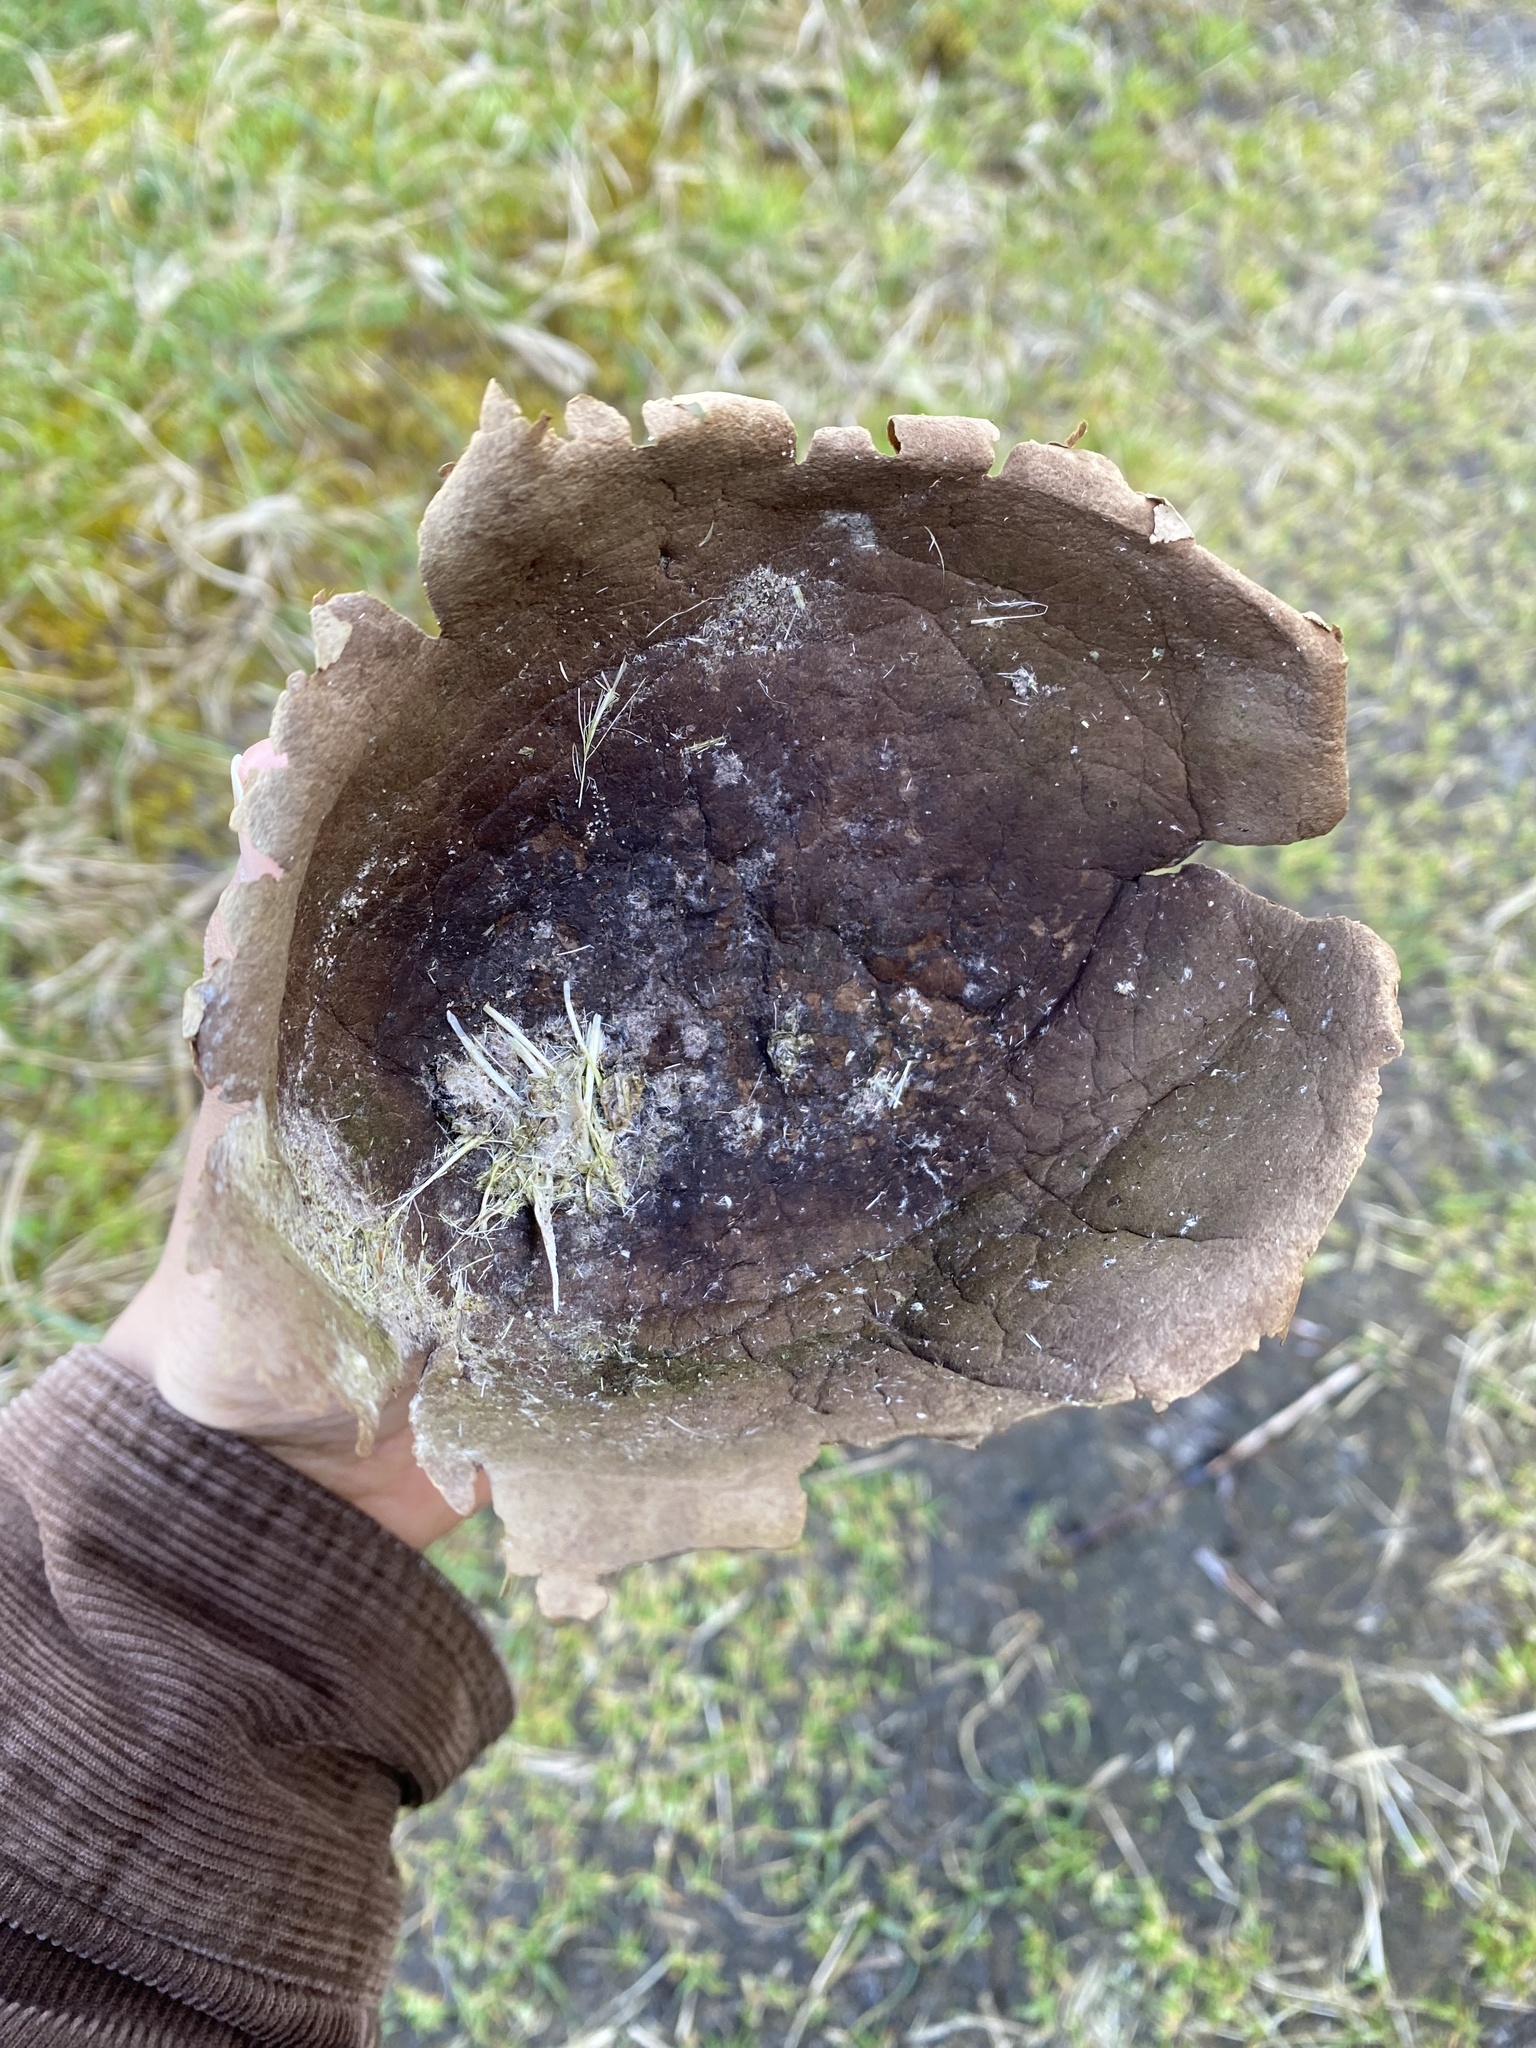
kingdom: Fungi
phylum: Basidiomycota
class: Agaricomycetes
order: Agaricales
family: Lycoperdaceae
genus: Bovistella
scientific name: Bovistella utriformis
